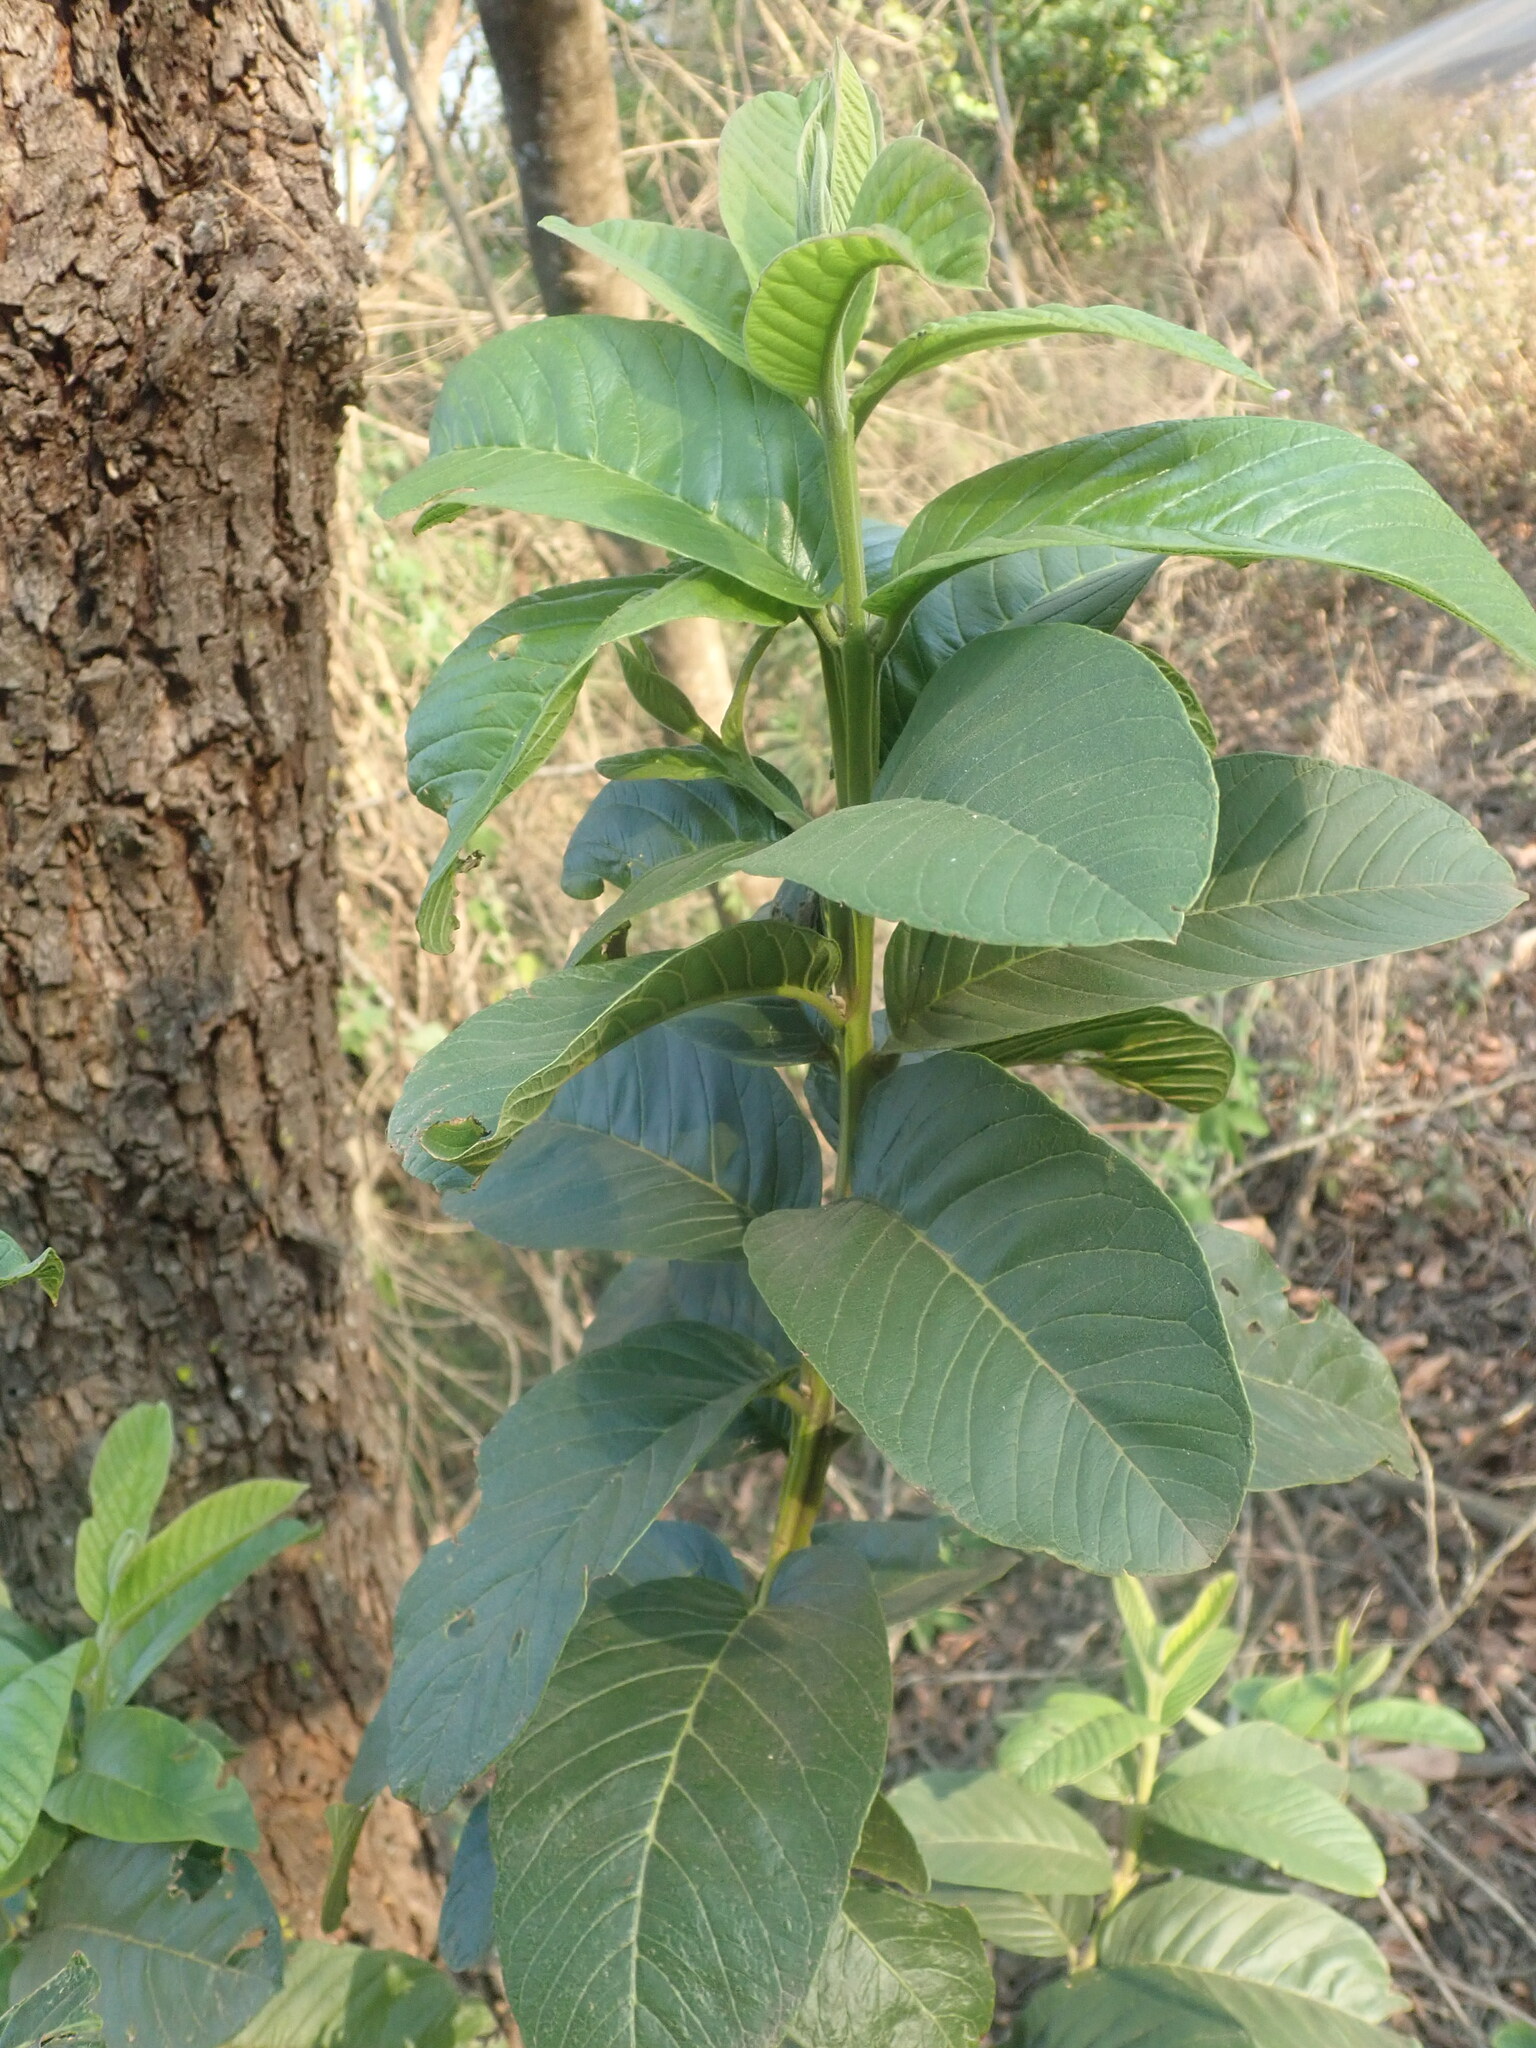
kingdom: Plantae
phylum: Tracheophyta
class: Magnoliopsida
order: Myrtales
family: Myrtaceae
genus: Psidium
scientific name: Psidium guajava
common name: Guava
